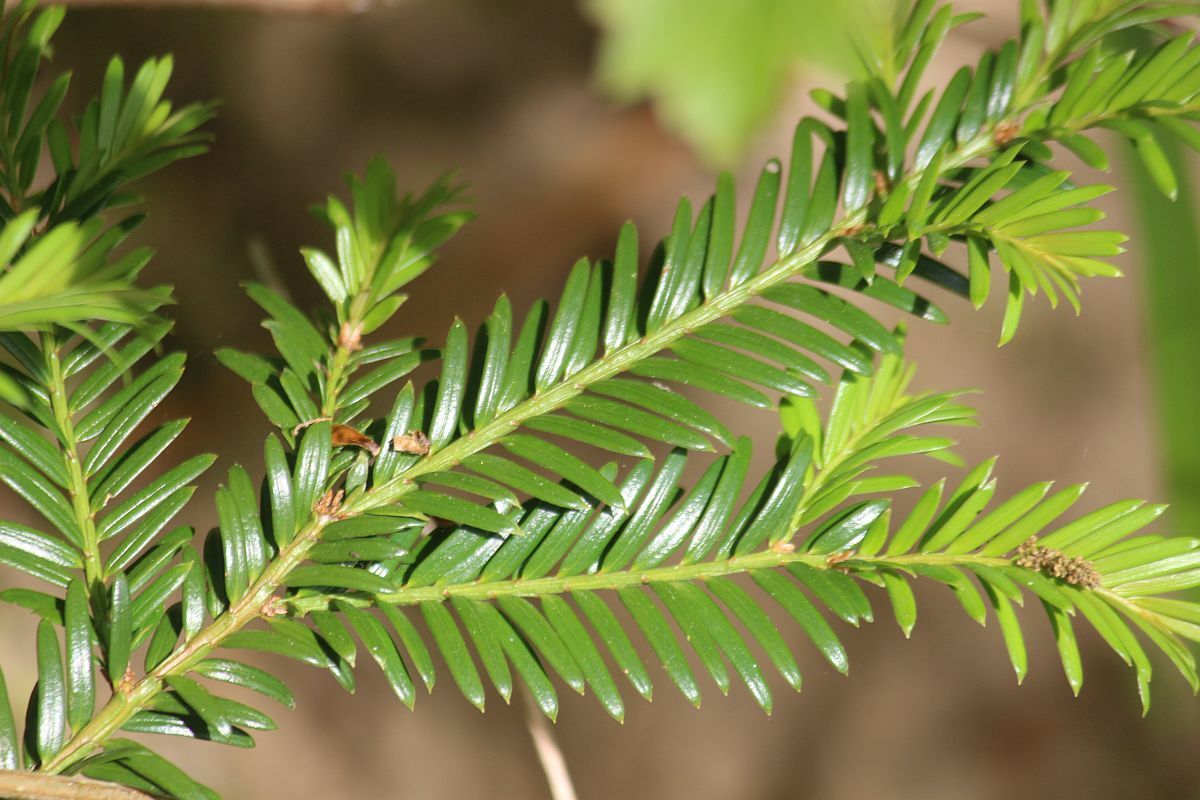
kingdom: Plantae
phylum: Tracheophyta
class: Pinopsida
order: Pinales
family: Taxaceae
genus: Taxus
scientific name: Taxus baccata
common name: Yew
